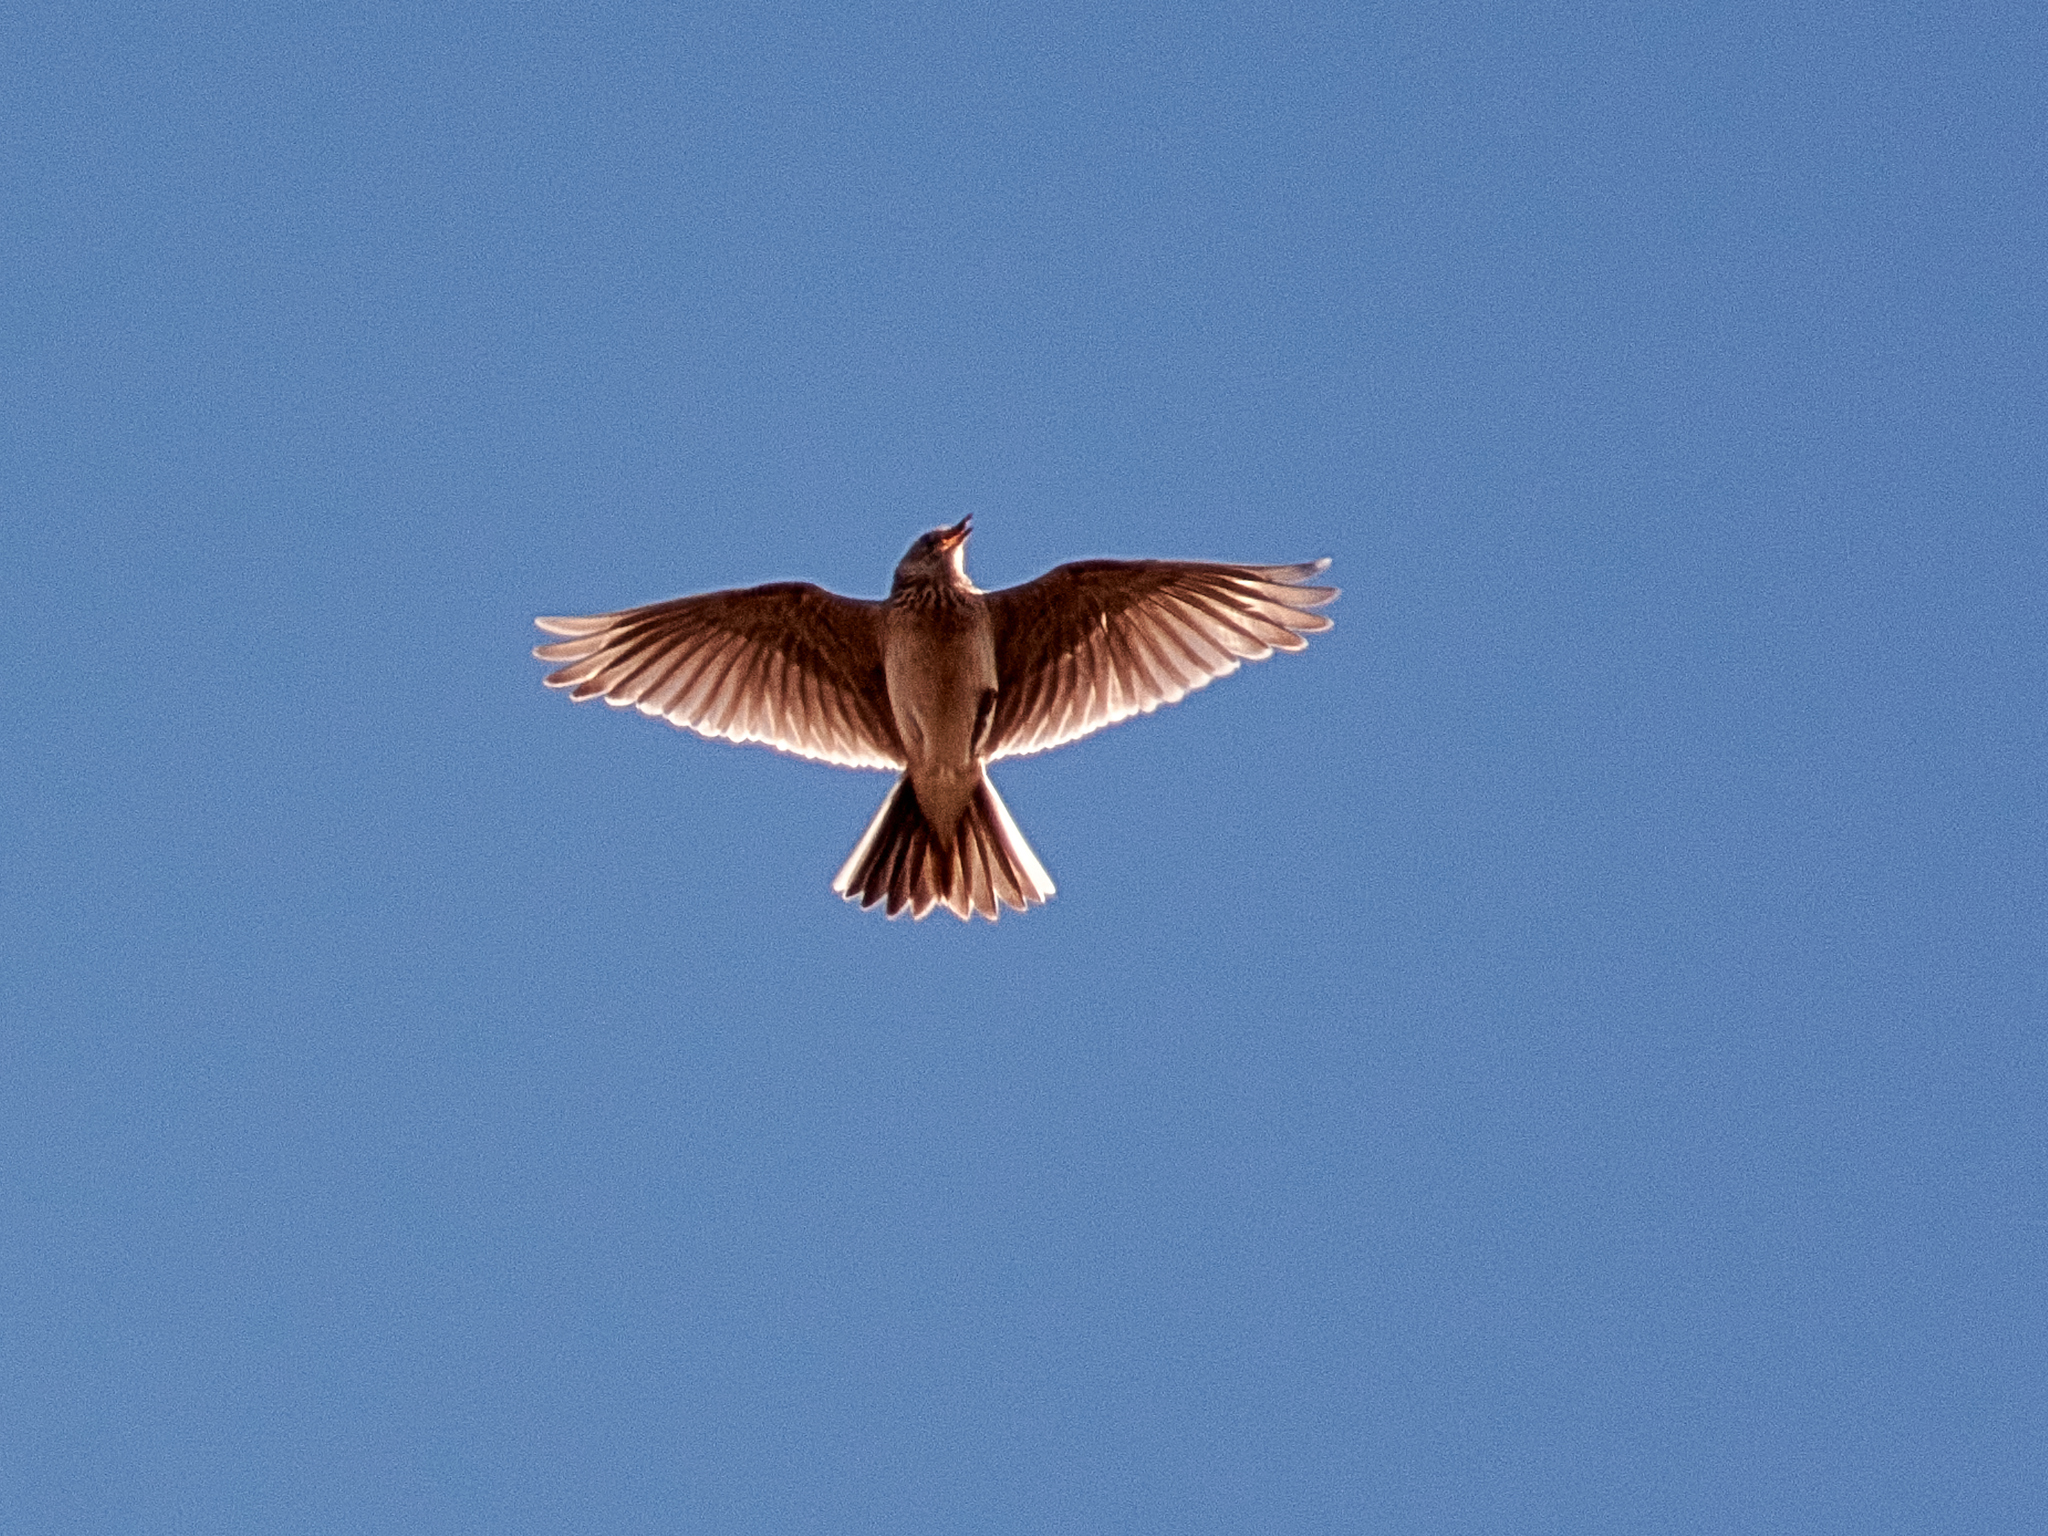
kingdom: Animalia
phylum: Chordata
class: Aves
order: Passeriformes
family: Alaudidae
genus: Alauda
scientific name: Alauda arvensis
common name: Eurasian skylark
